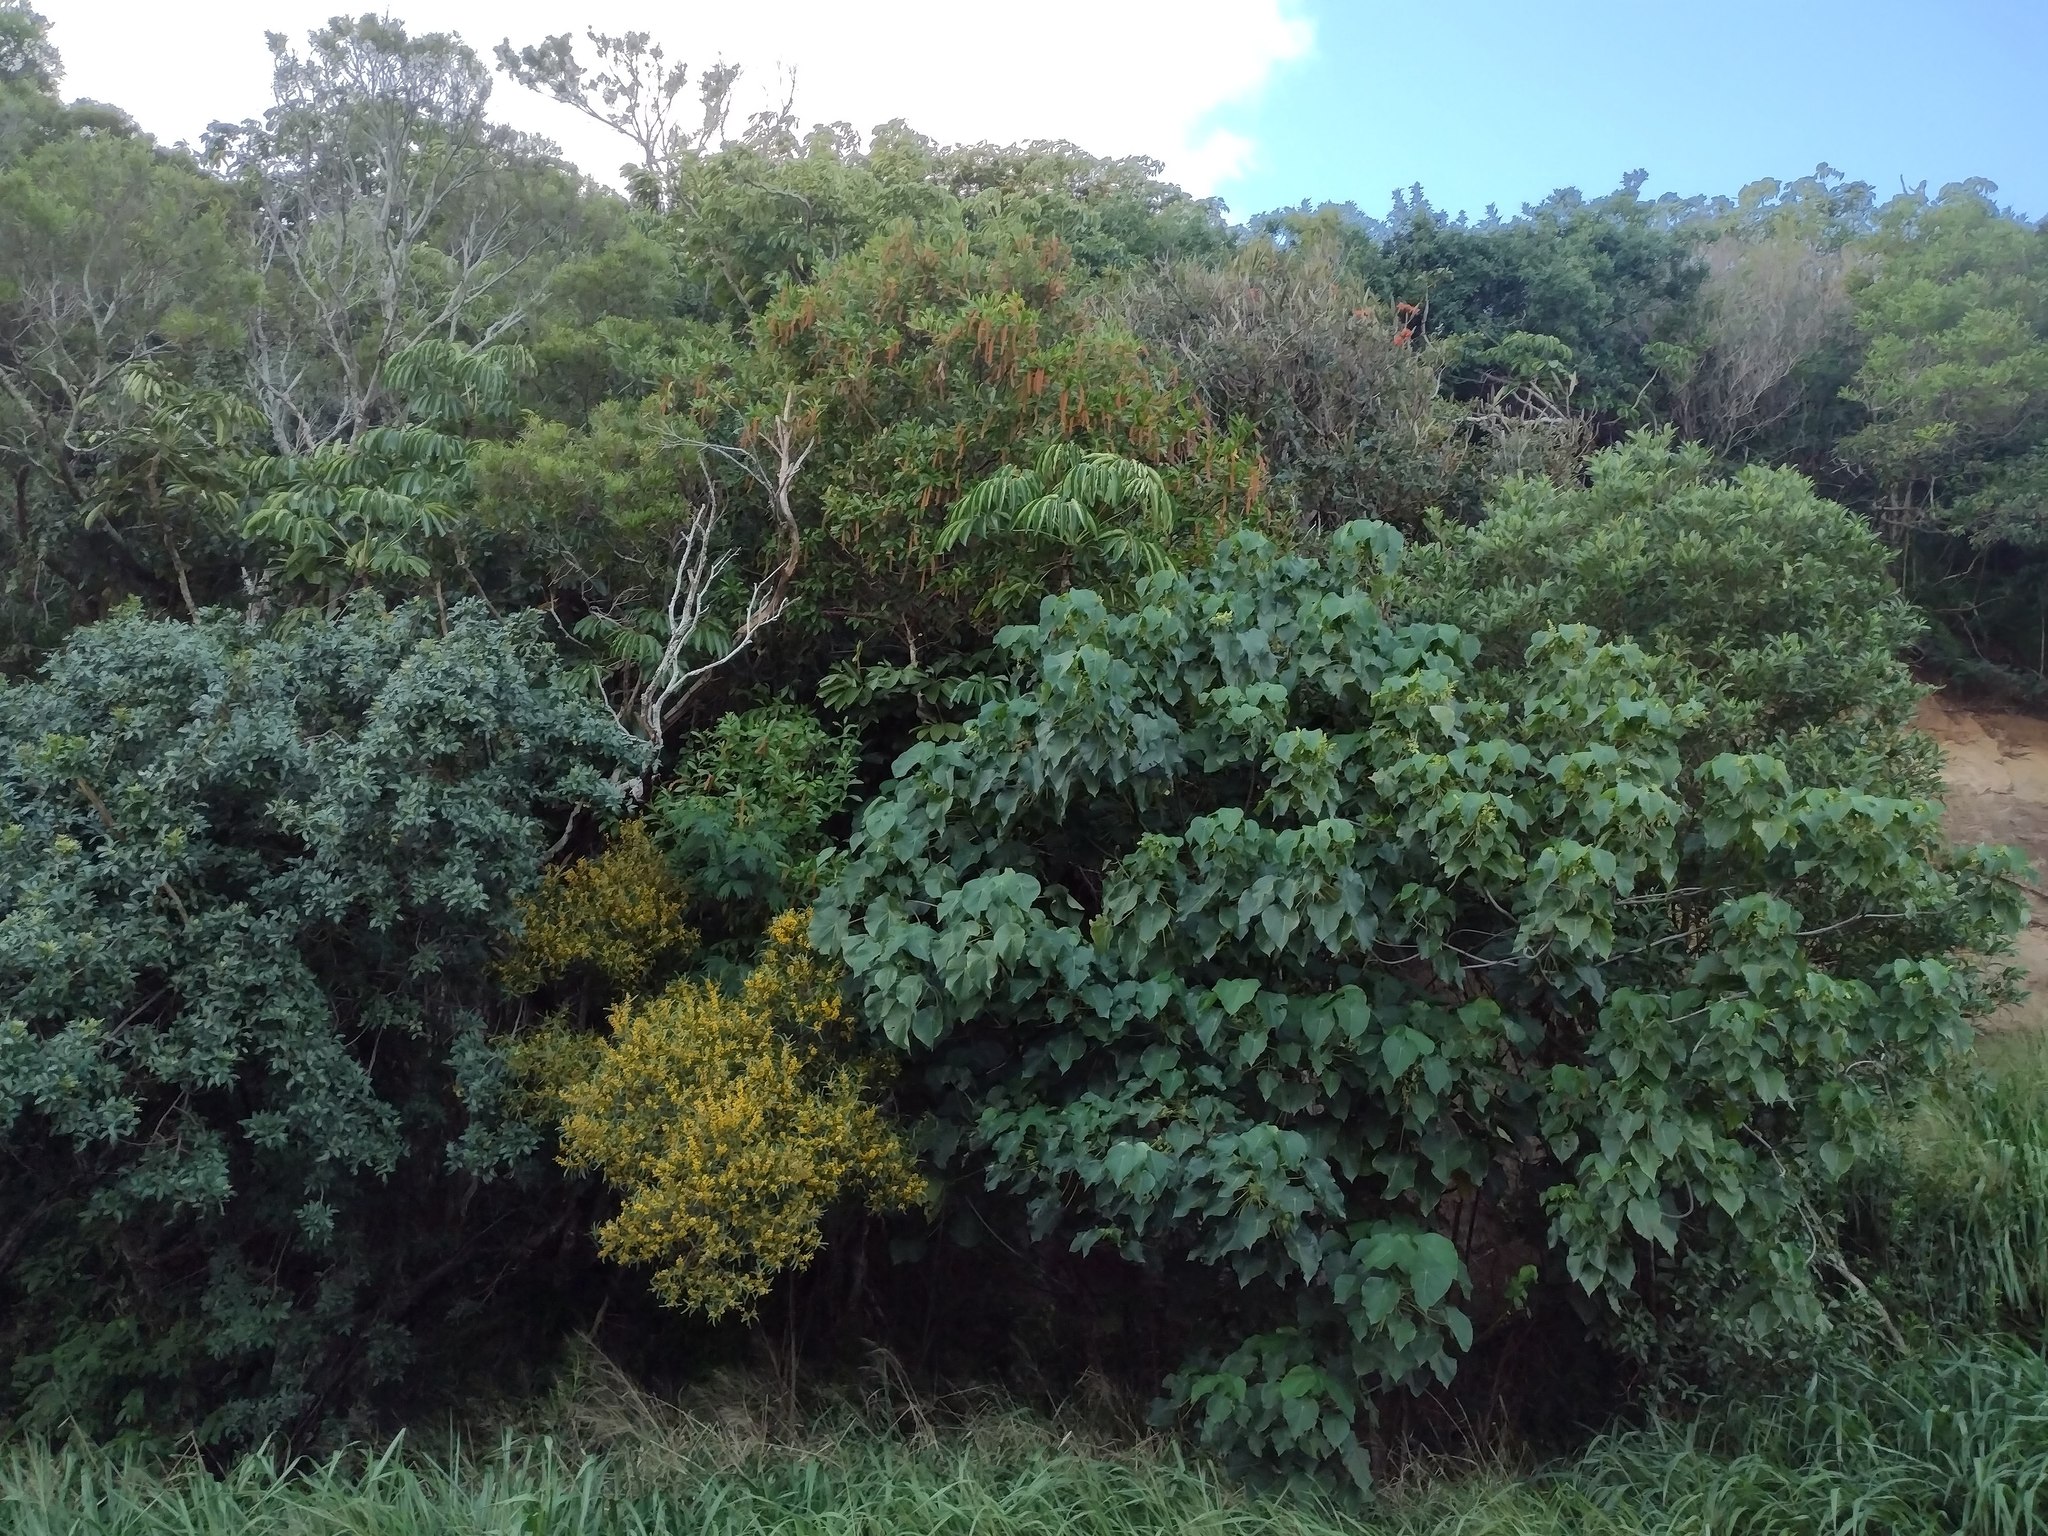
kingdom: Plantae
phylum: Tracheophyta
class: Magnoliopsida
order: Fabales
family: Fabaceae
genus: Acacia
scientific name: Acacia confusa
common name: Formosan koa
